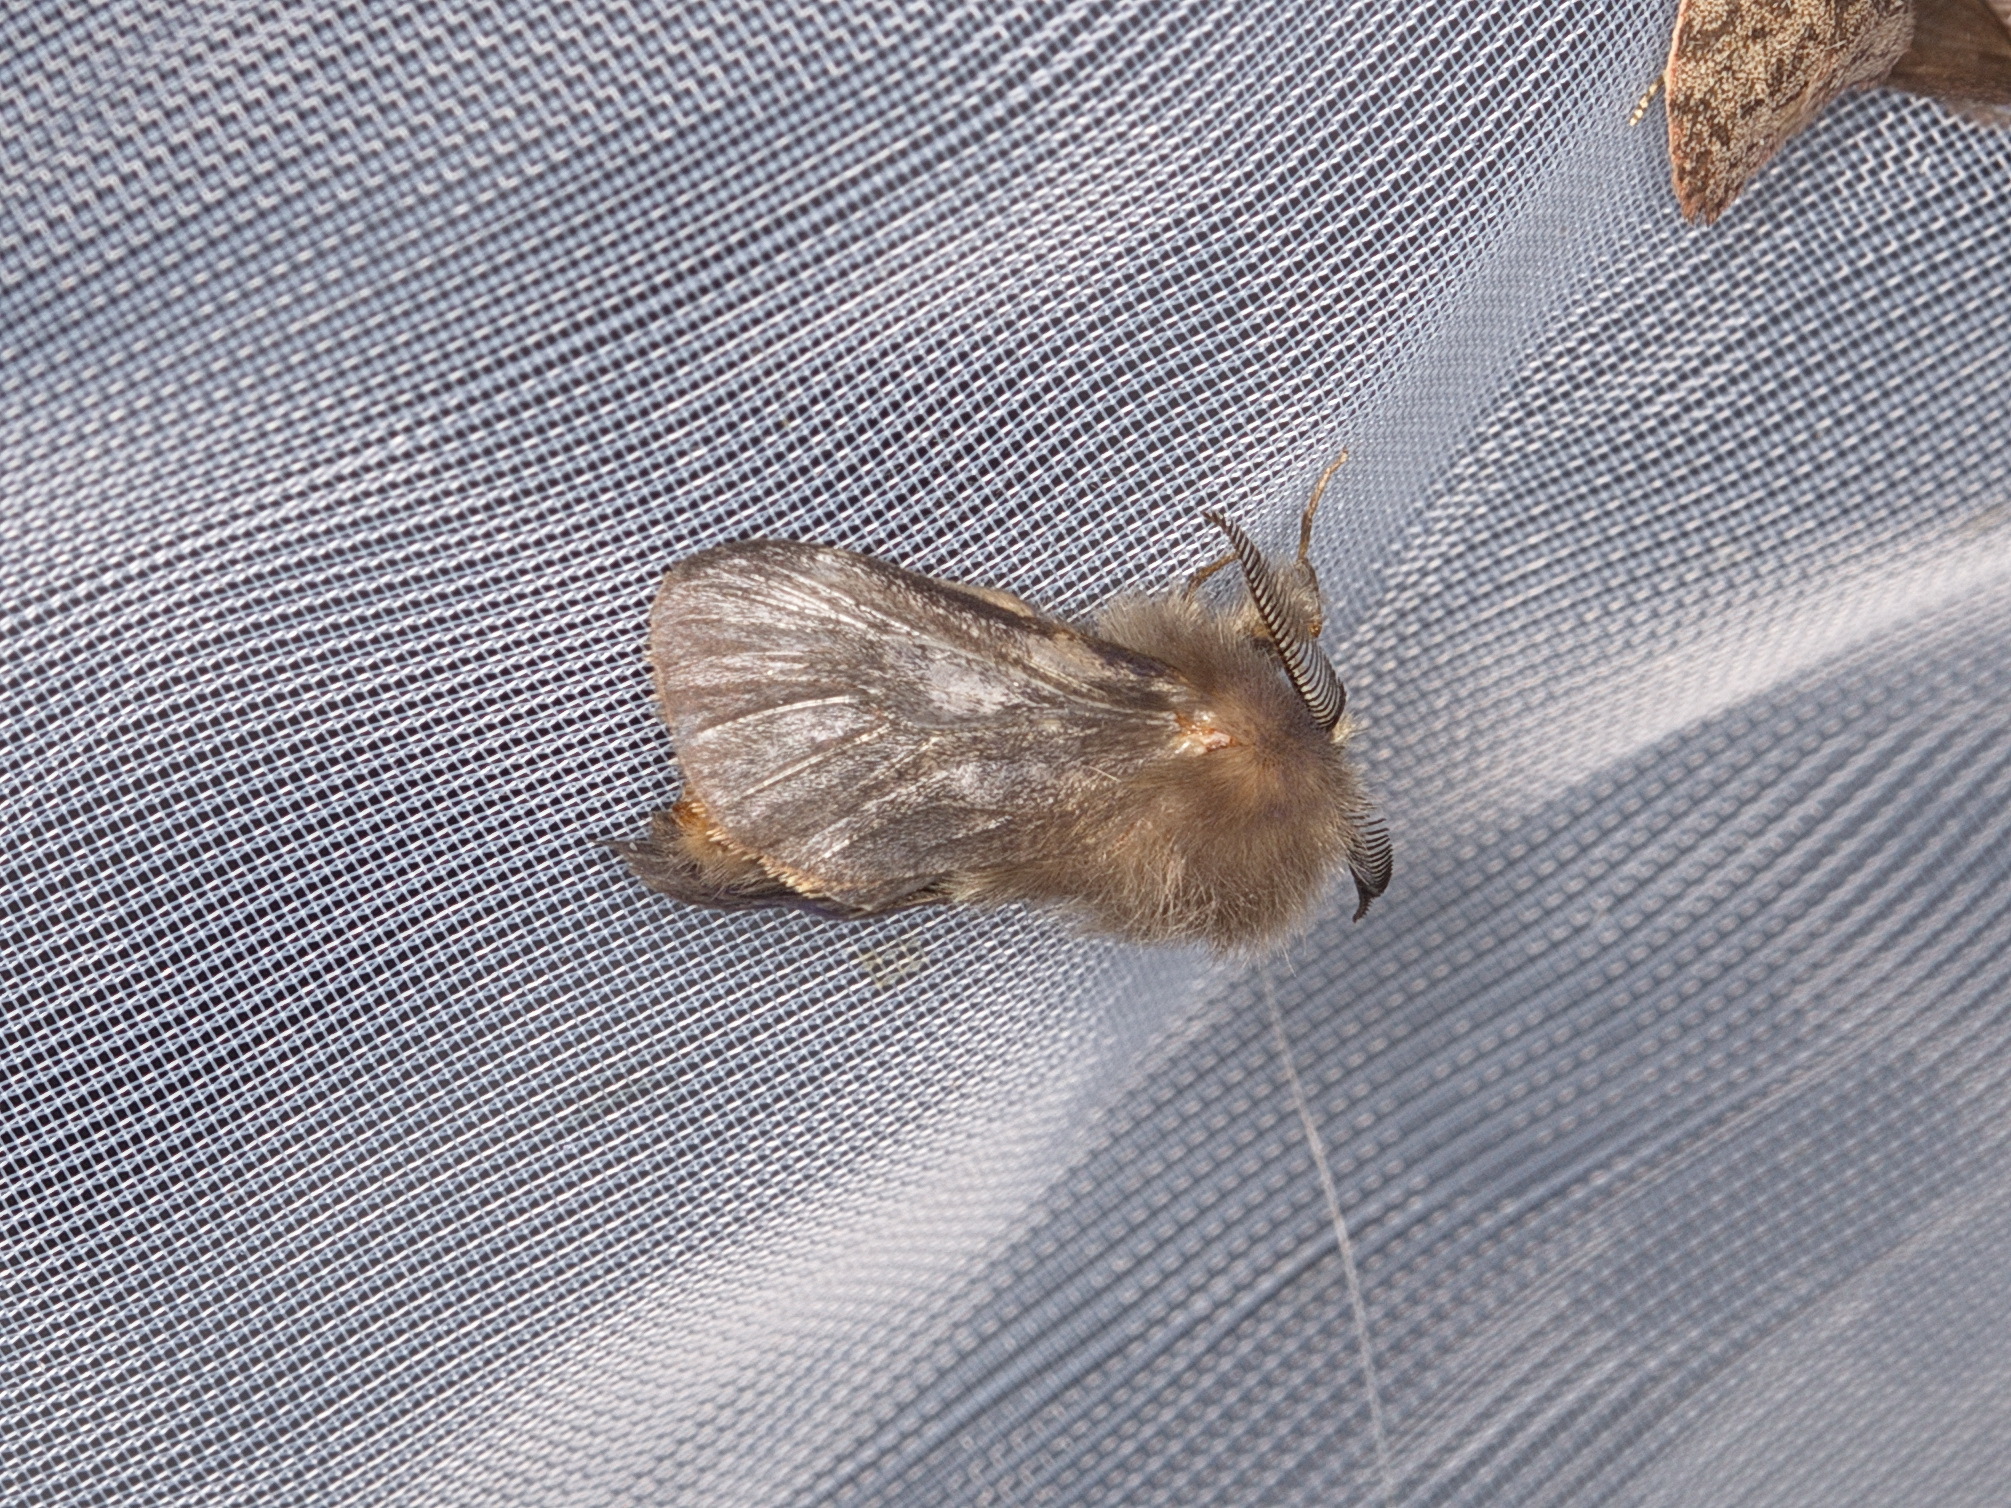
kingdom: Animalia
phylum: Arthropoda
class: Insecta
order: Lepidoptera
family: Psychidae
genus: Lomera
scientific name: Lomera lurida
